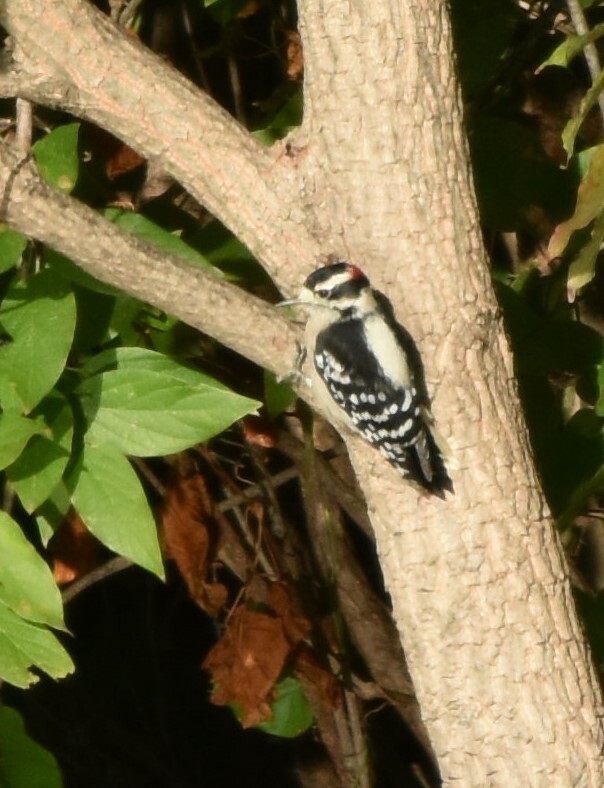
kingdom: Animalia
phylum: Chordata
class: Aves
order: Piciformes
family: Picidae
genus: Dryobates
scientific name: Dryobates pubescens
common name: Downy woodpecker
